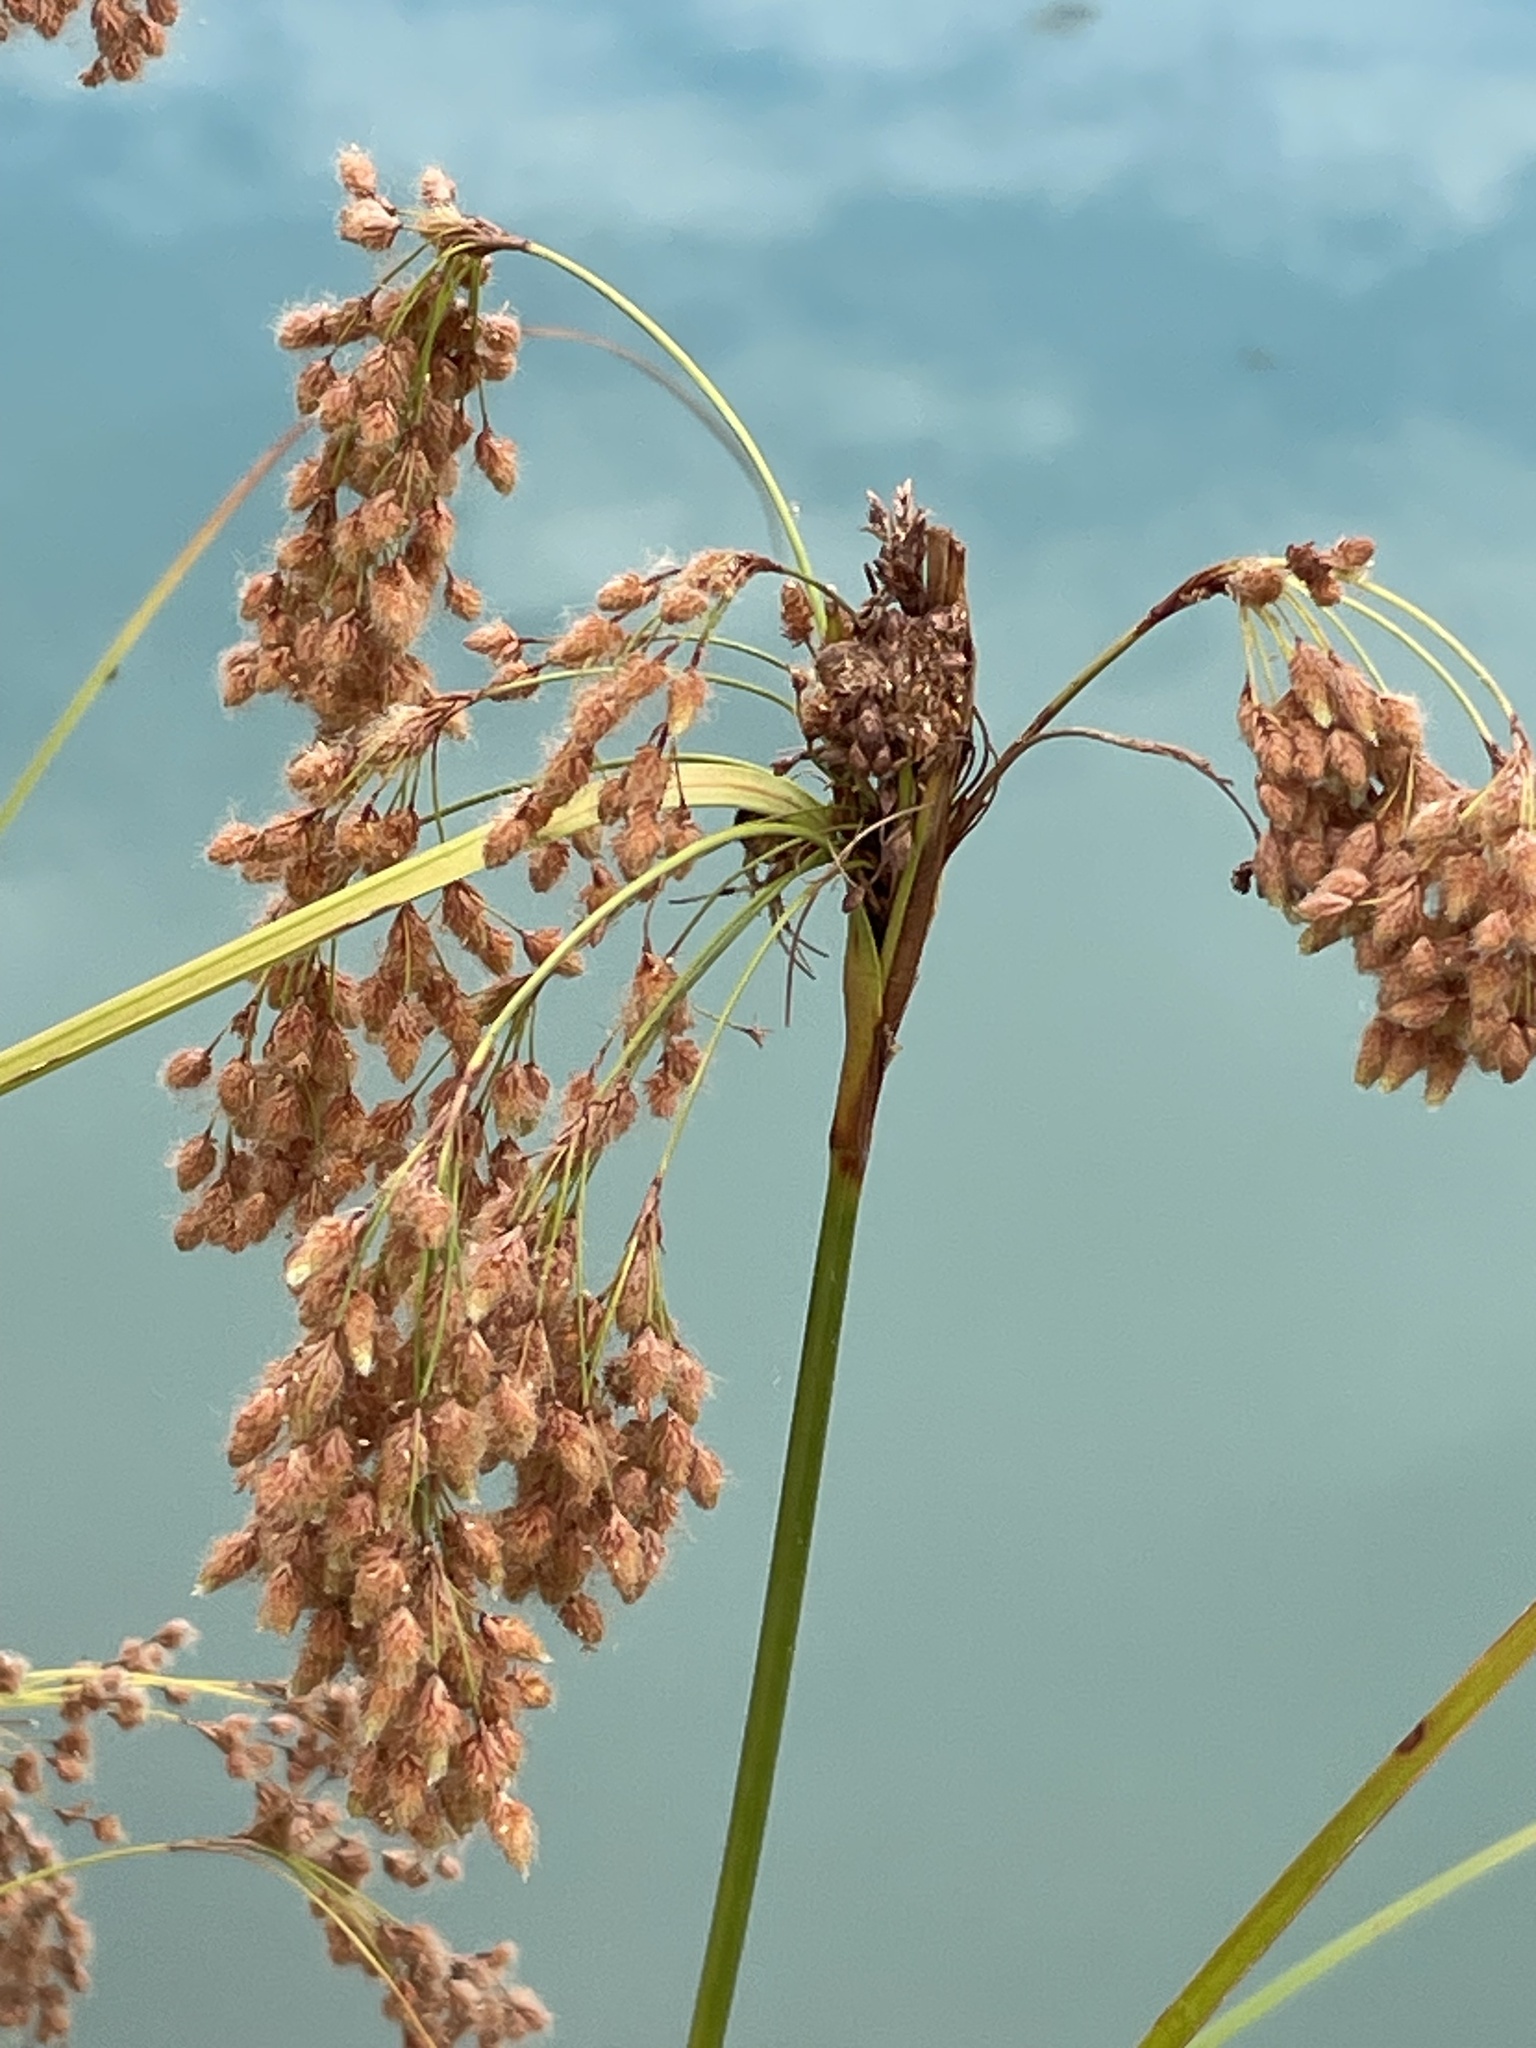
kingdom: Plantae
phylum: Tracheophyta
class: Liliopsida
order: Poales
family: Cyperaceae
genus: Scirpus
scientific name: Scirpus cyperinus
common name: Black-sheathed bulrush
